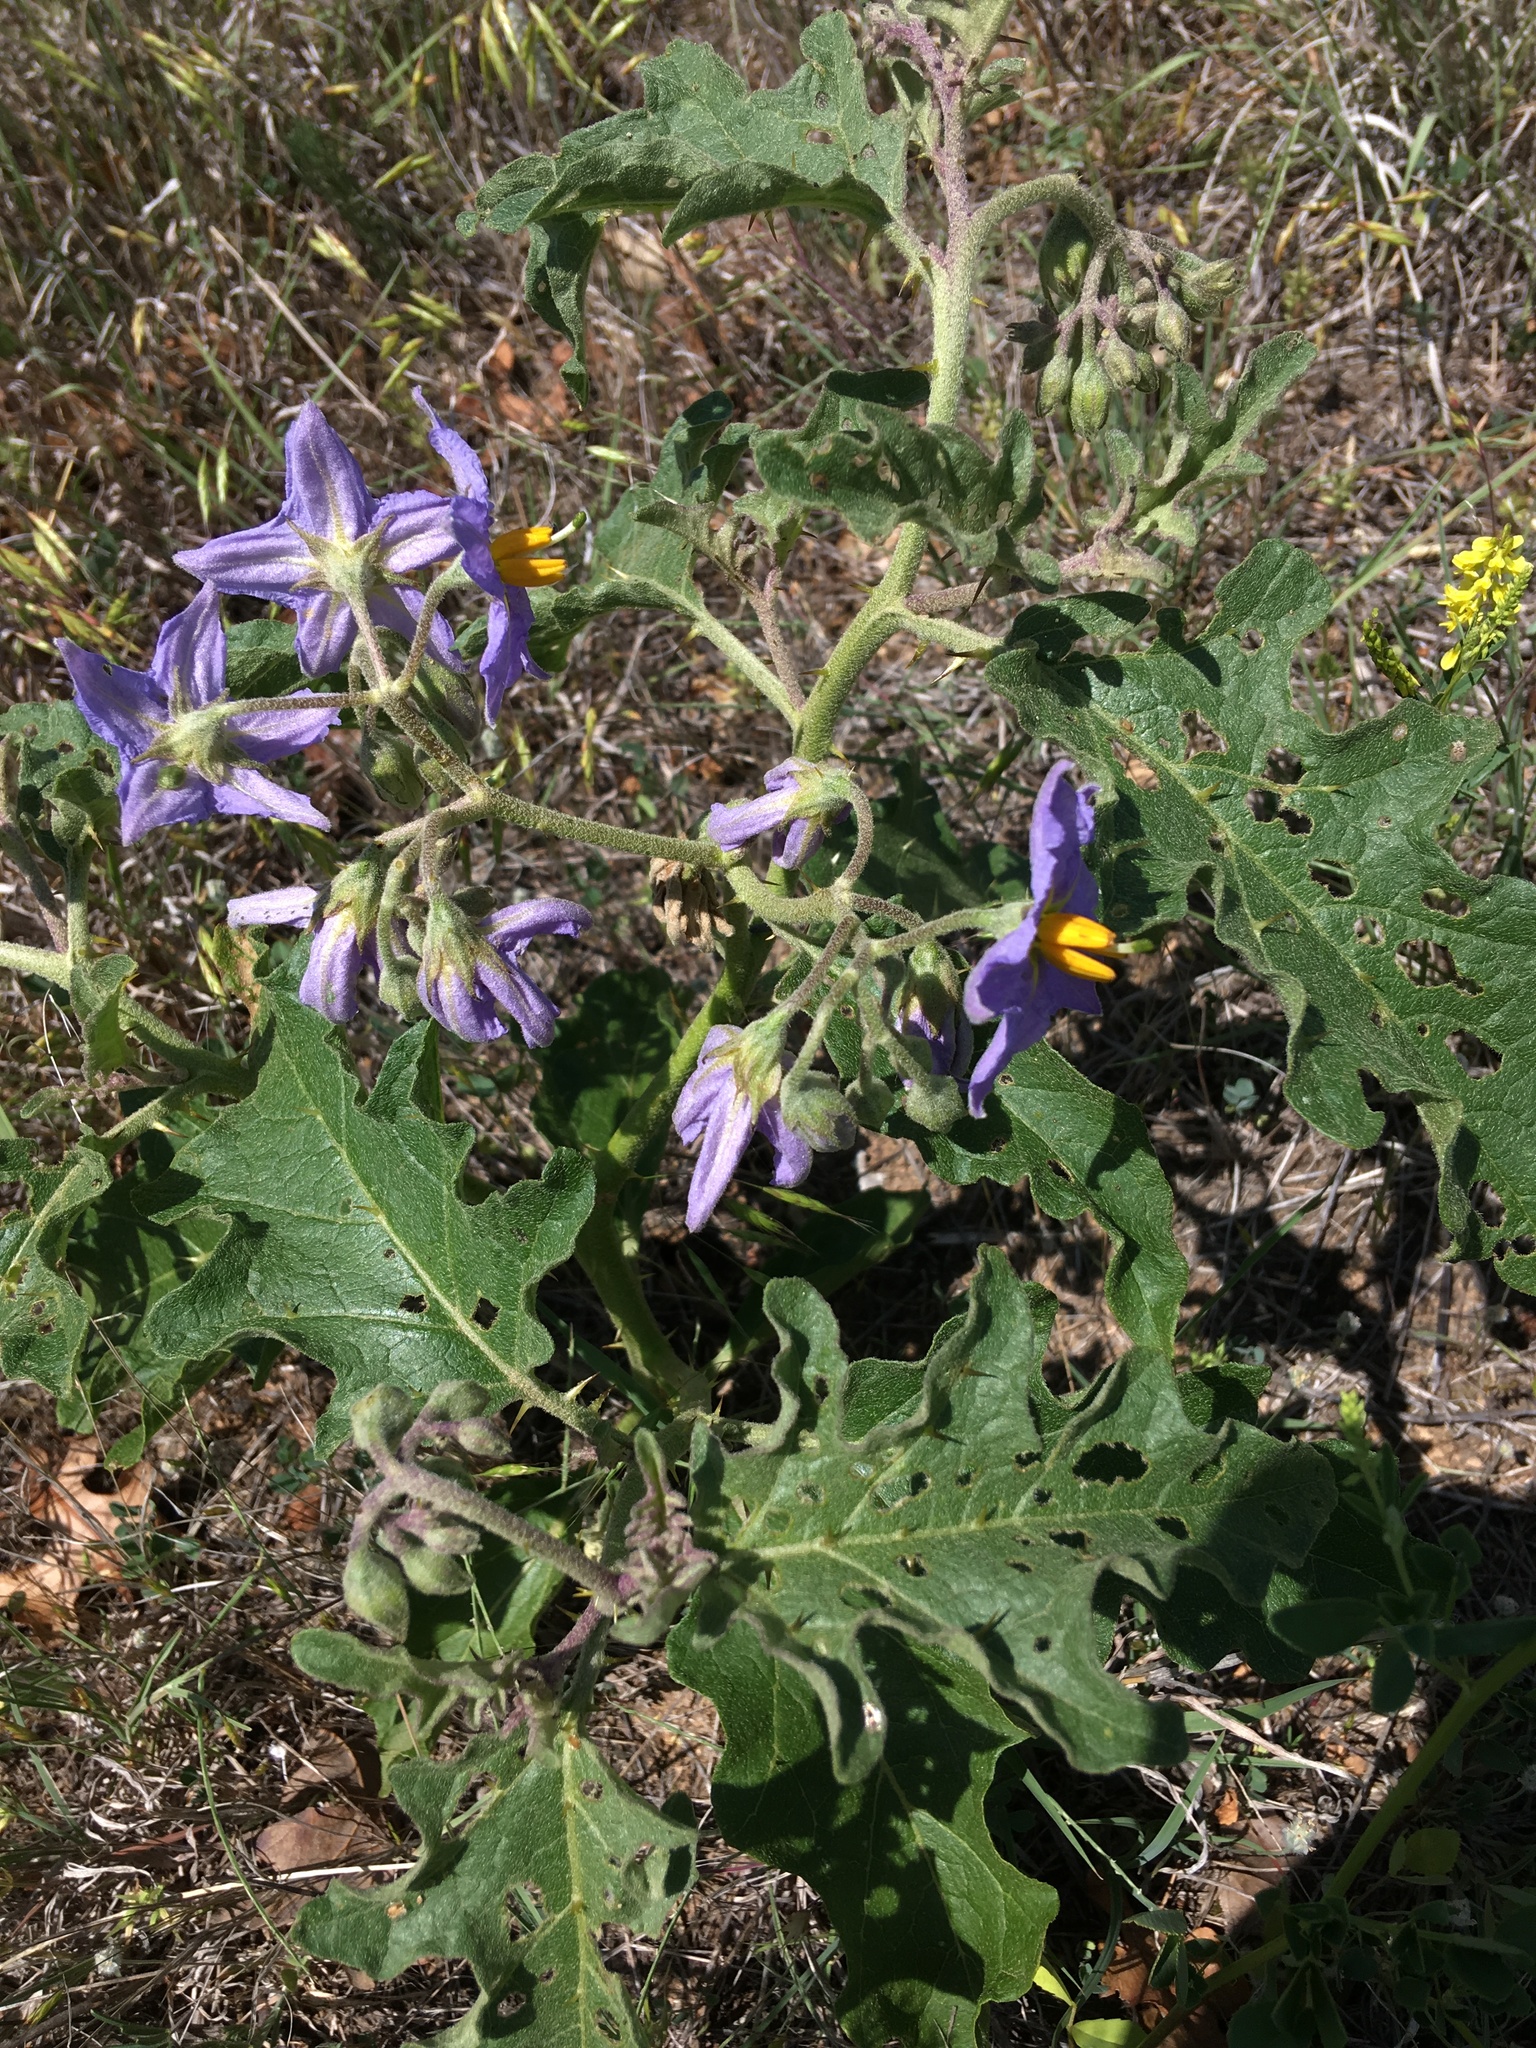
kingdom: Plantae
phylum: Tracheophyta
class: Magnoliopsida
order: Solanales
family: Solanaceae
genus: Solanum
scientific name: Solanum dimidiatum
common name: Carolina horse-nettle
